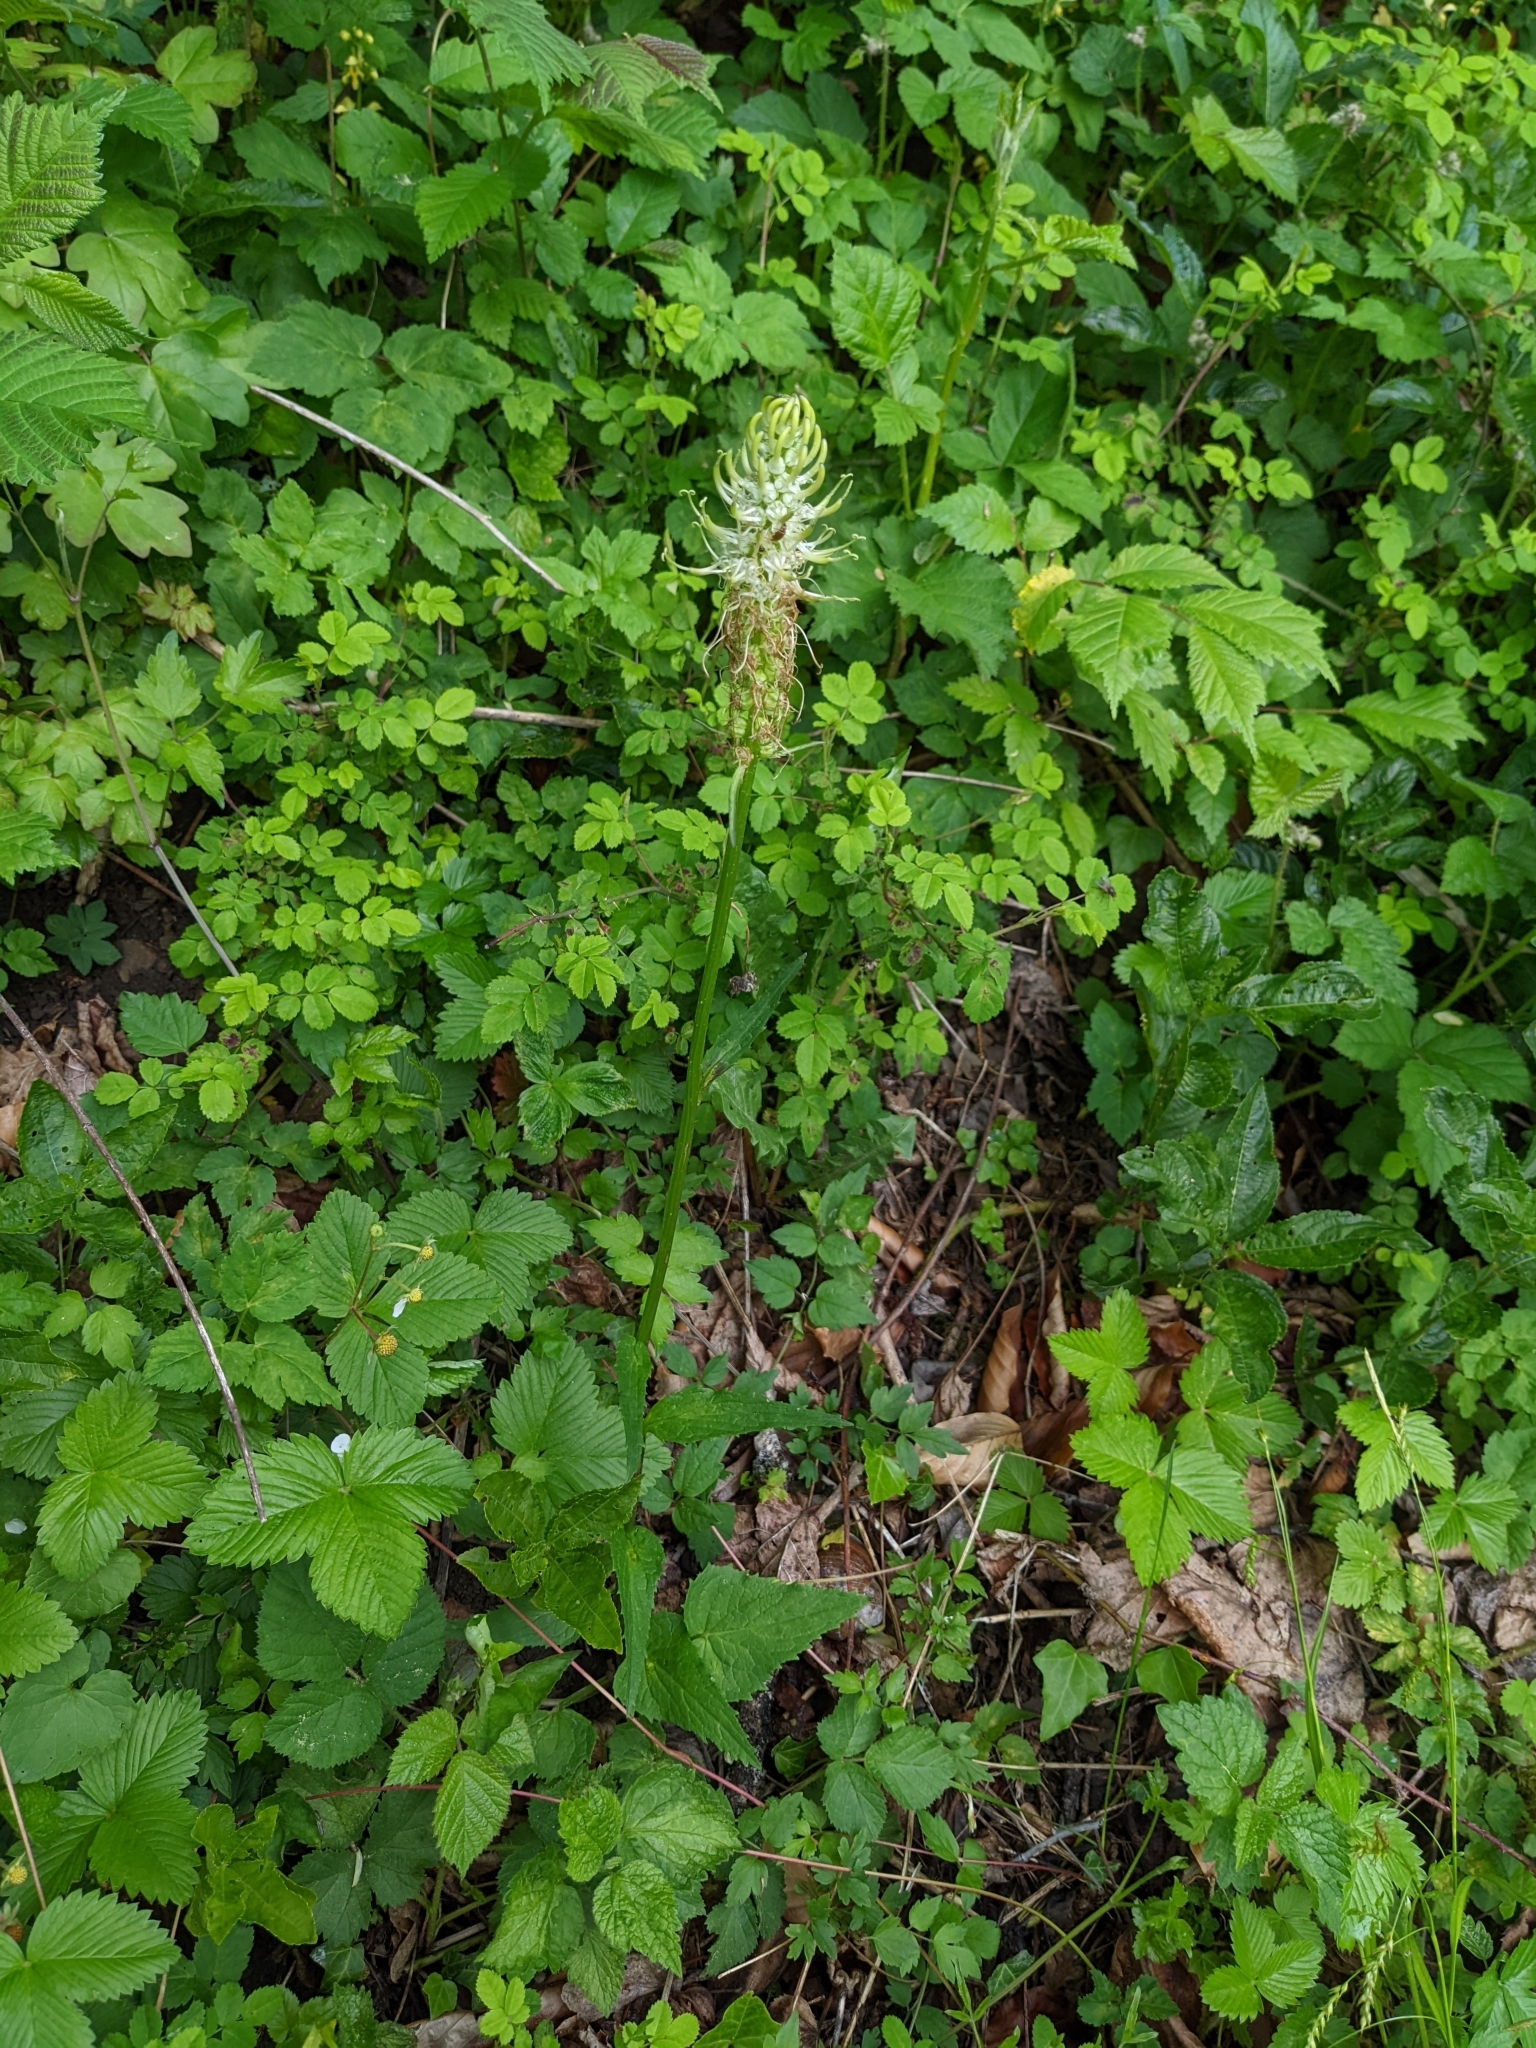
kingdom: Plantae
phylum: Tracheophyta
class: Magnoliopsida
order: Asterales
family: Campanulaceae
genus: Phyteuma
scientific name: Phyteuma spicatum
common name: Spiked rampion
